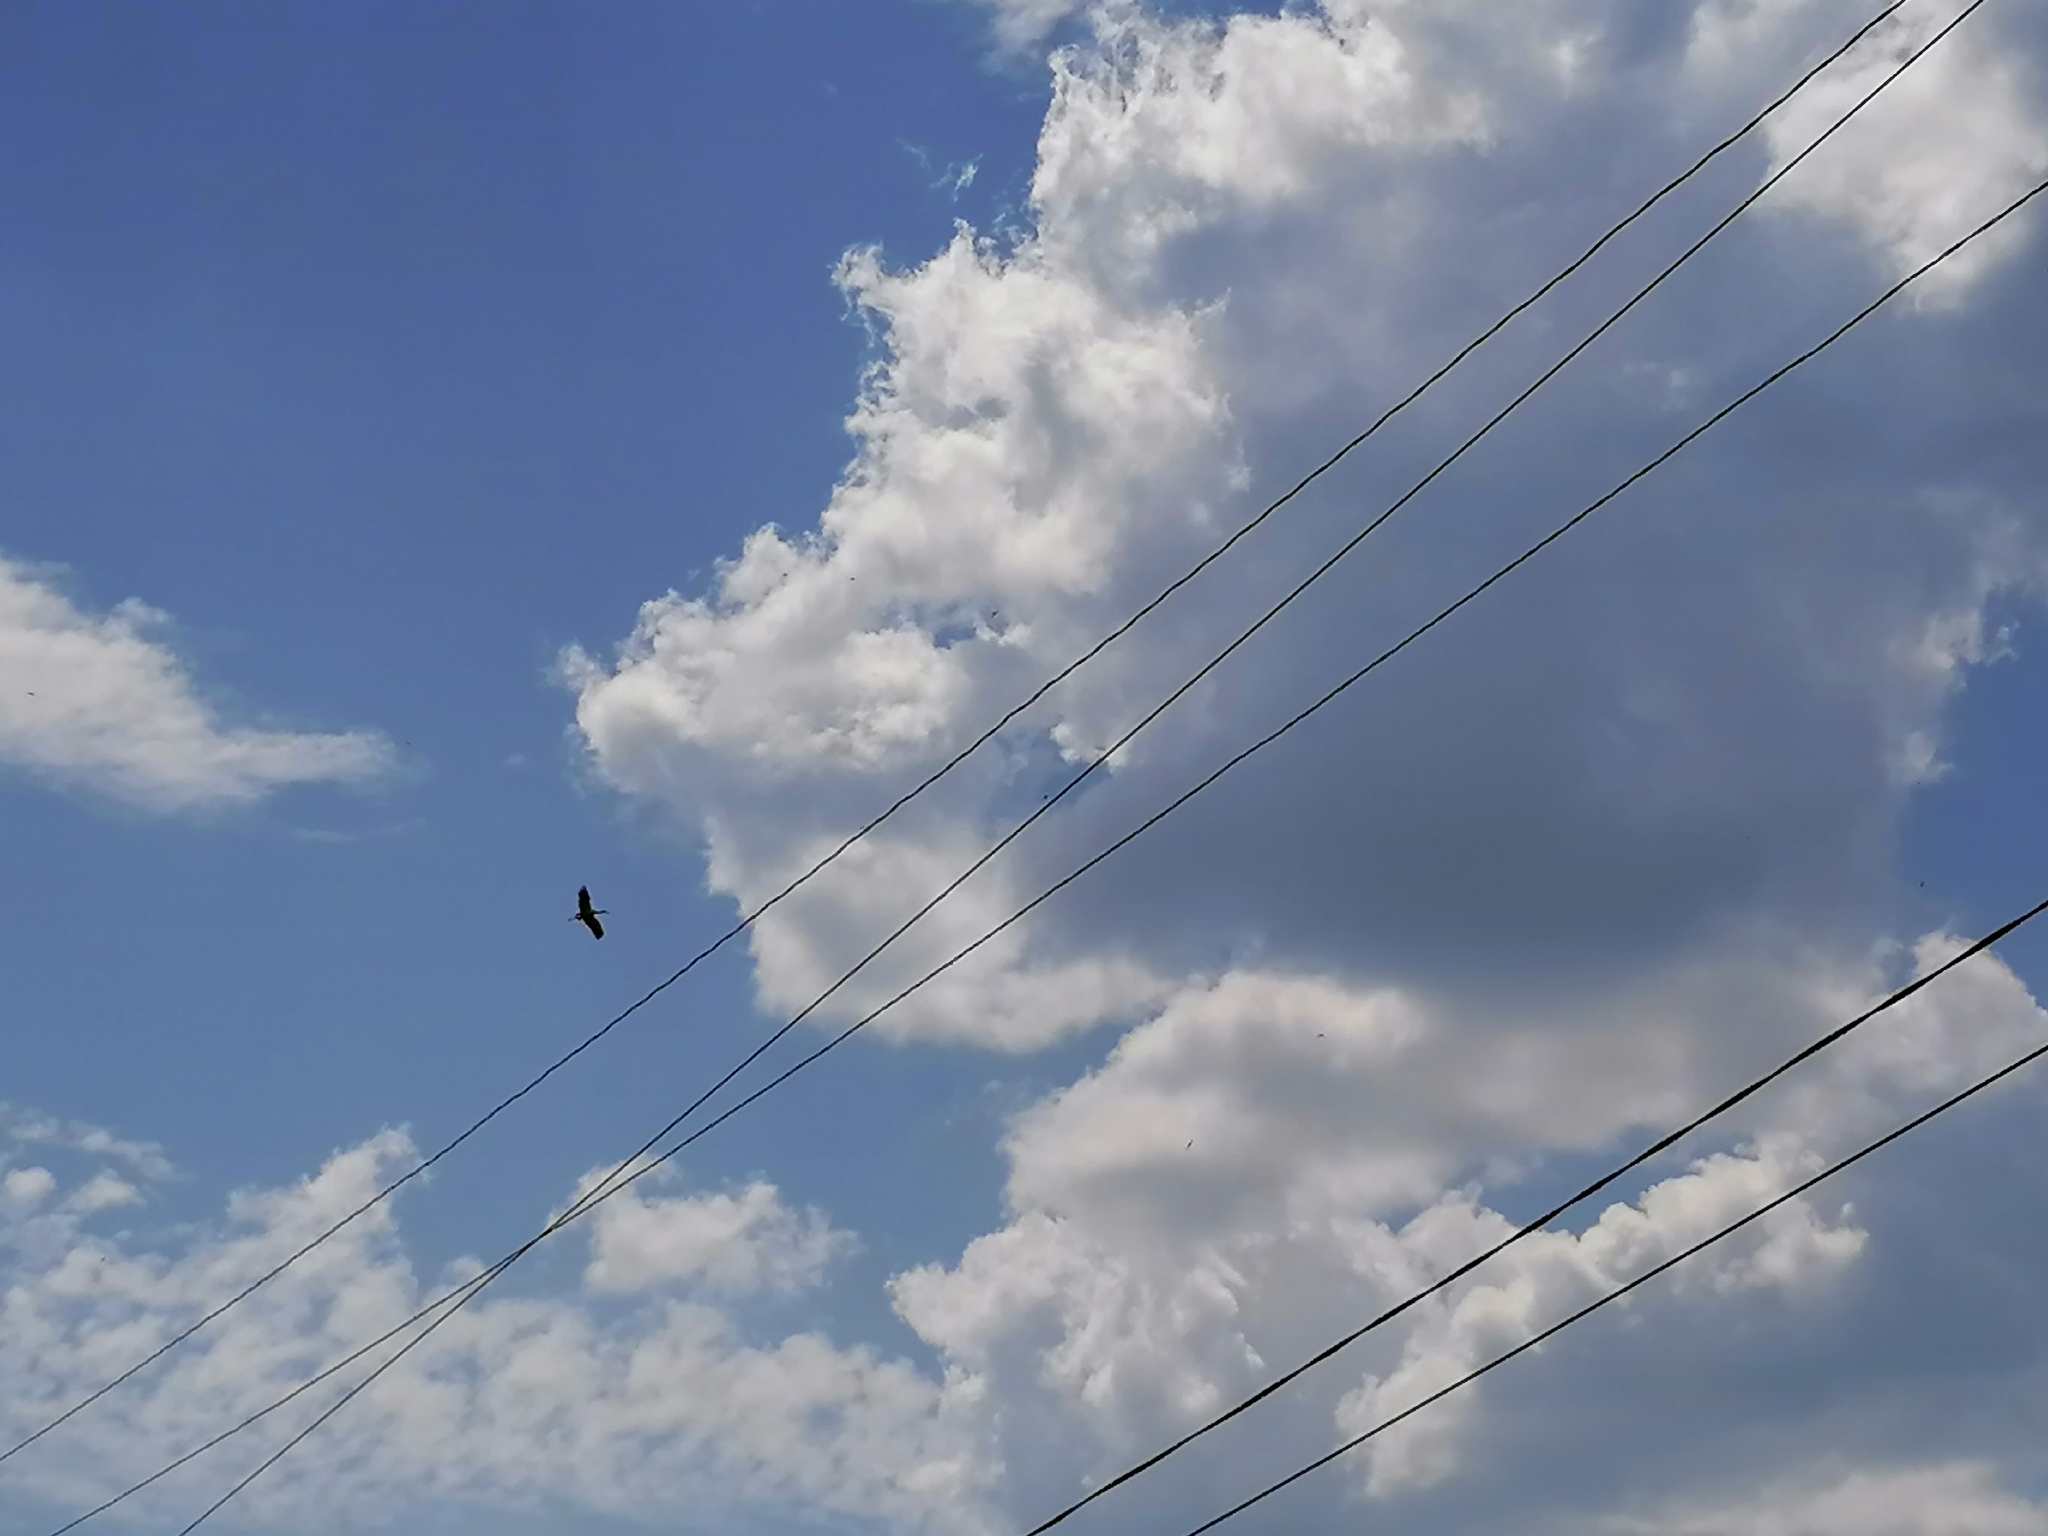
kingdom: Animalia
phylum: Chordata
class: Aves
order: Ciconiiformes
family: Ciconiidae
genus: Ciconia
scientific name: Ciconia ciconia
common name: White stork
